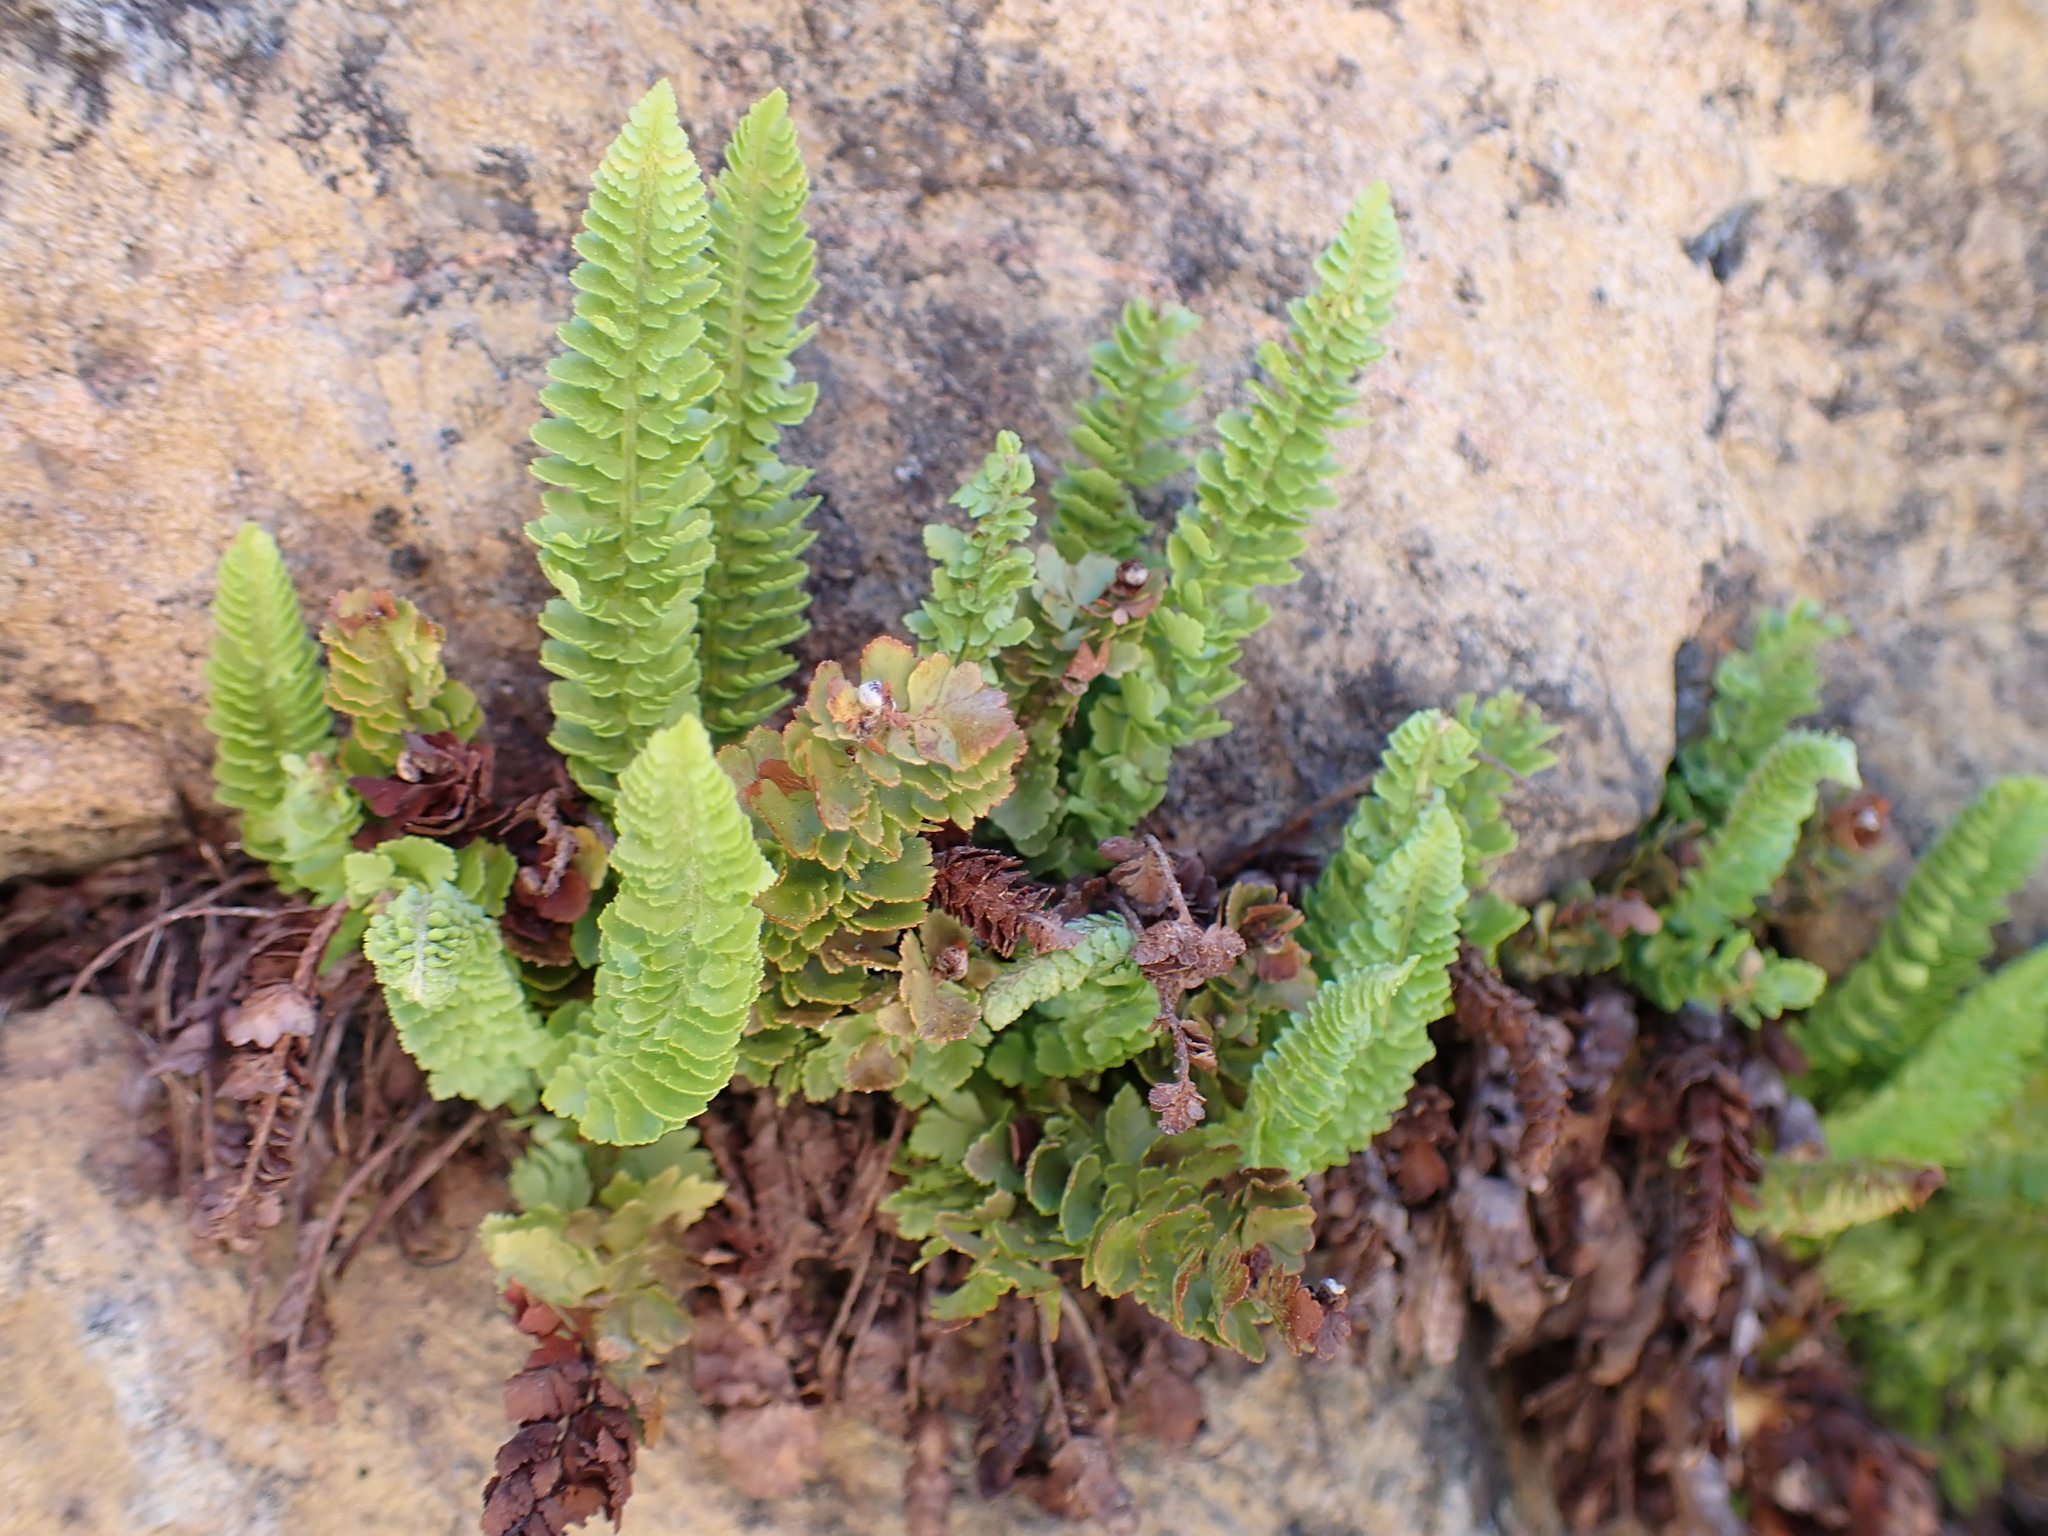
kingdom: Plantae
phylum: Tracheophyta
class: Polypodiopsida
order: Polypodiales
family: Dryopteridaceae
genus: Polystichum
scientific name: Polystichum lemmonii
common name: Lemmon's holly fern
